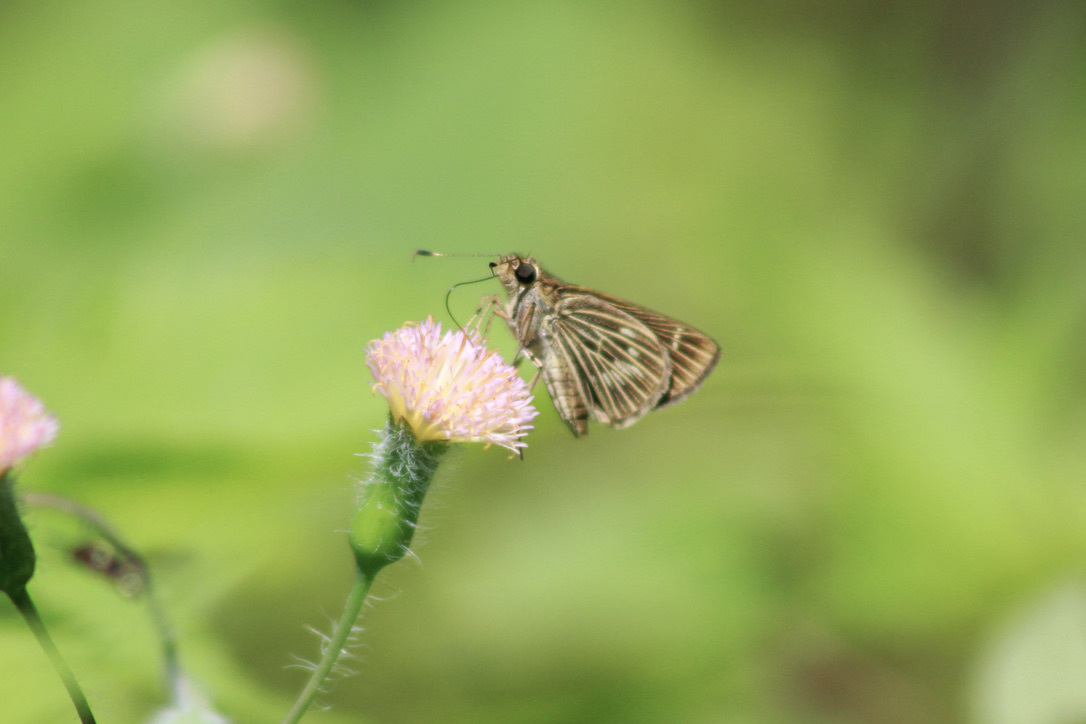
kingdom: Animalia
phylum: Arthropoda
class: Insecta
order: Lepidoptera
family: Hesperiidae
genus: Vehilius
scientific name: Vehilius stictomenes
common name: Pasture skipper
